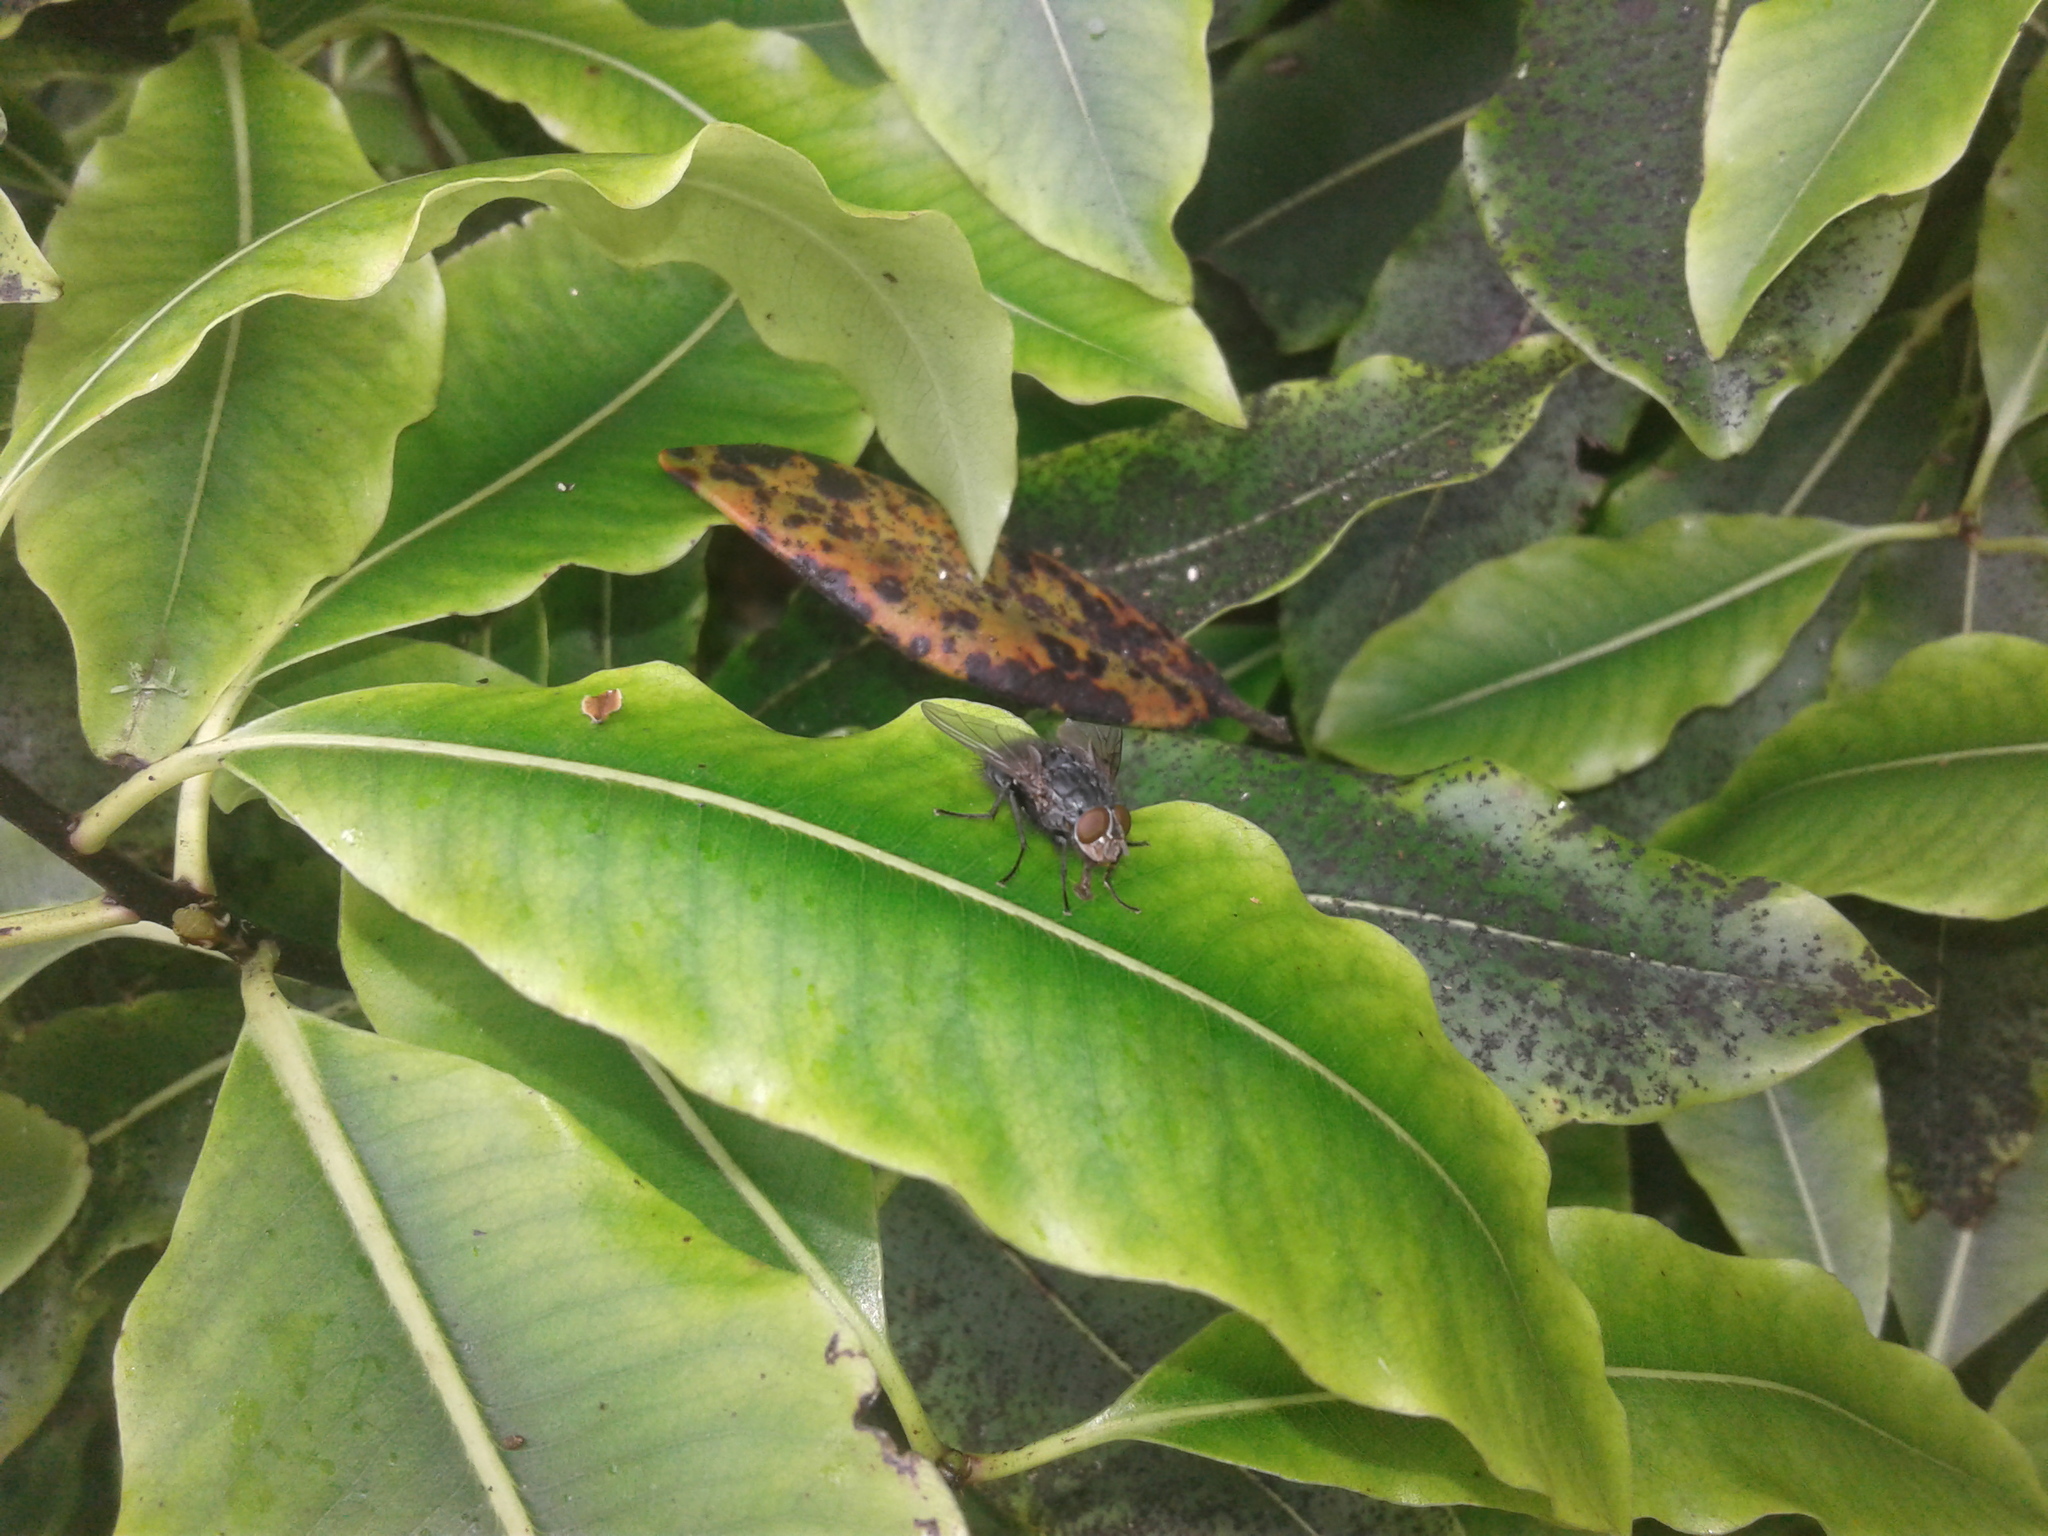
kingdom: Animalia
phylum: Arthropoda
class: Insecta
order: Diptera
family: Calliphoridae
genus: Calliphora
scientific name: Calliphora vicina
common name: Common blow flie
